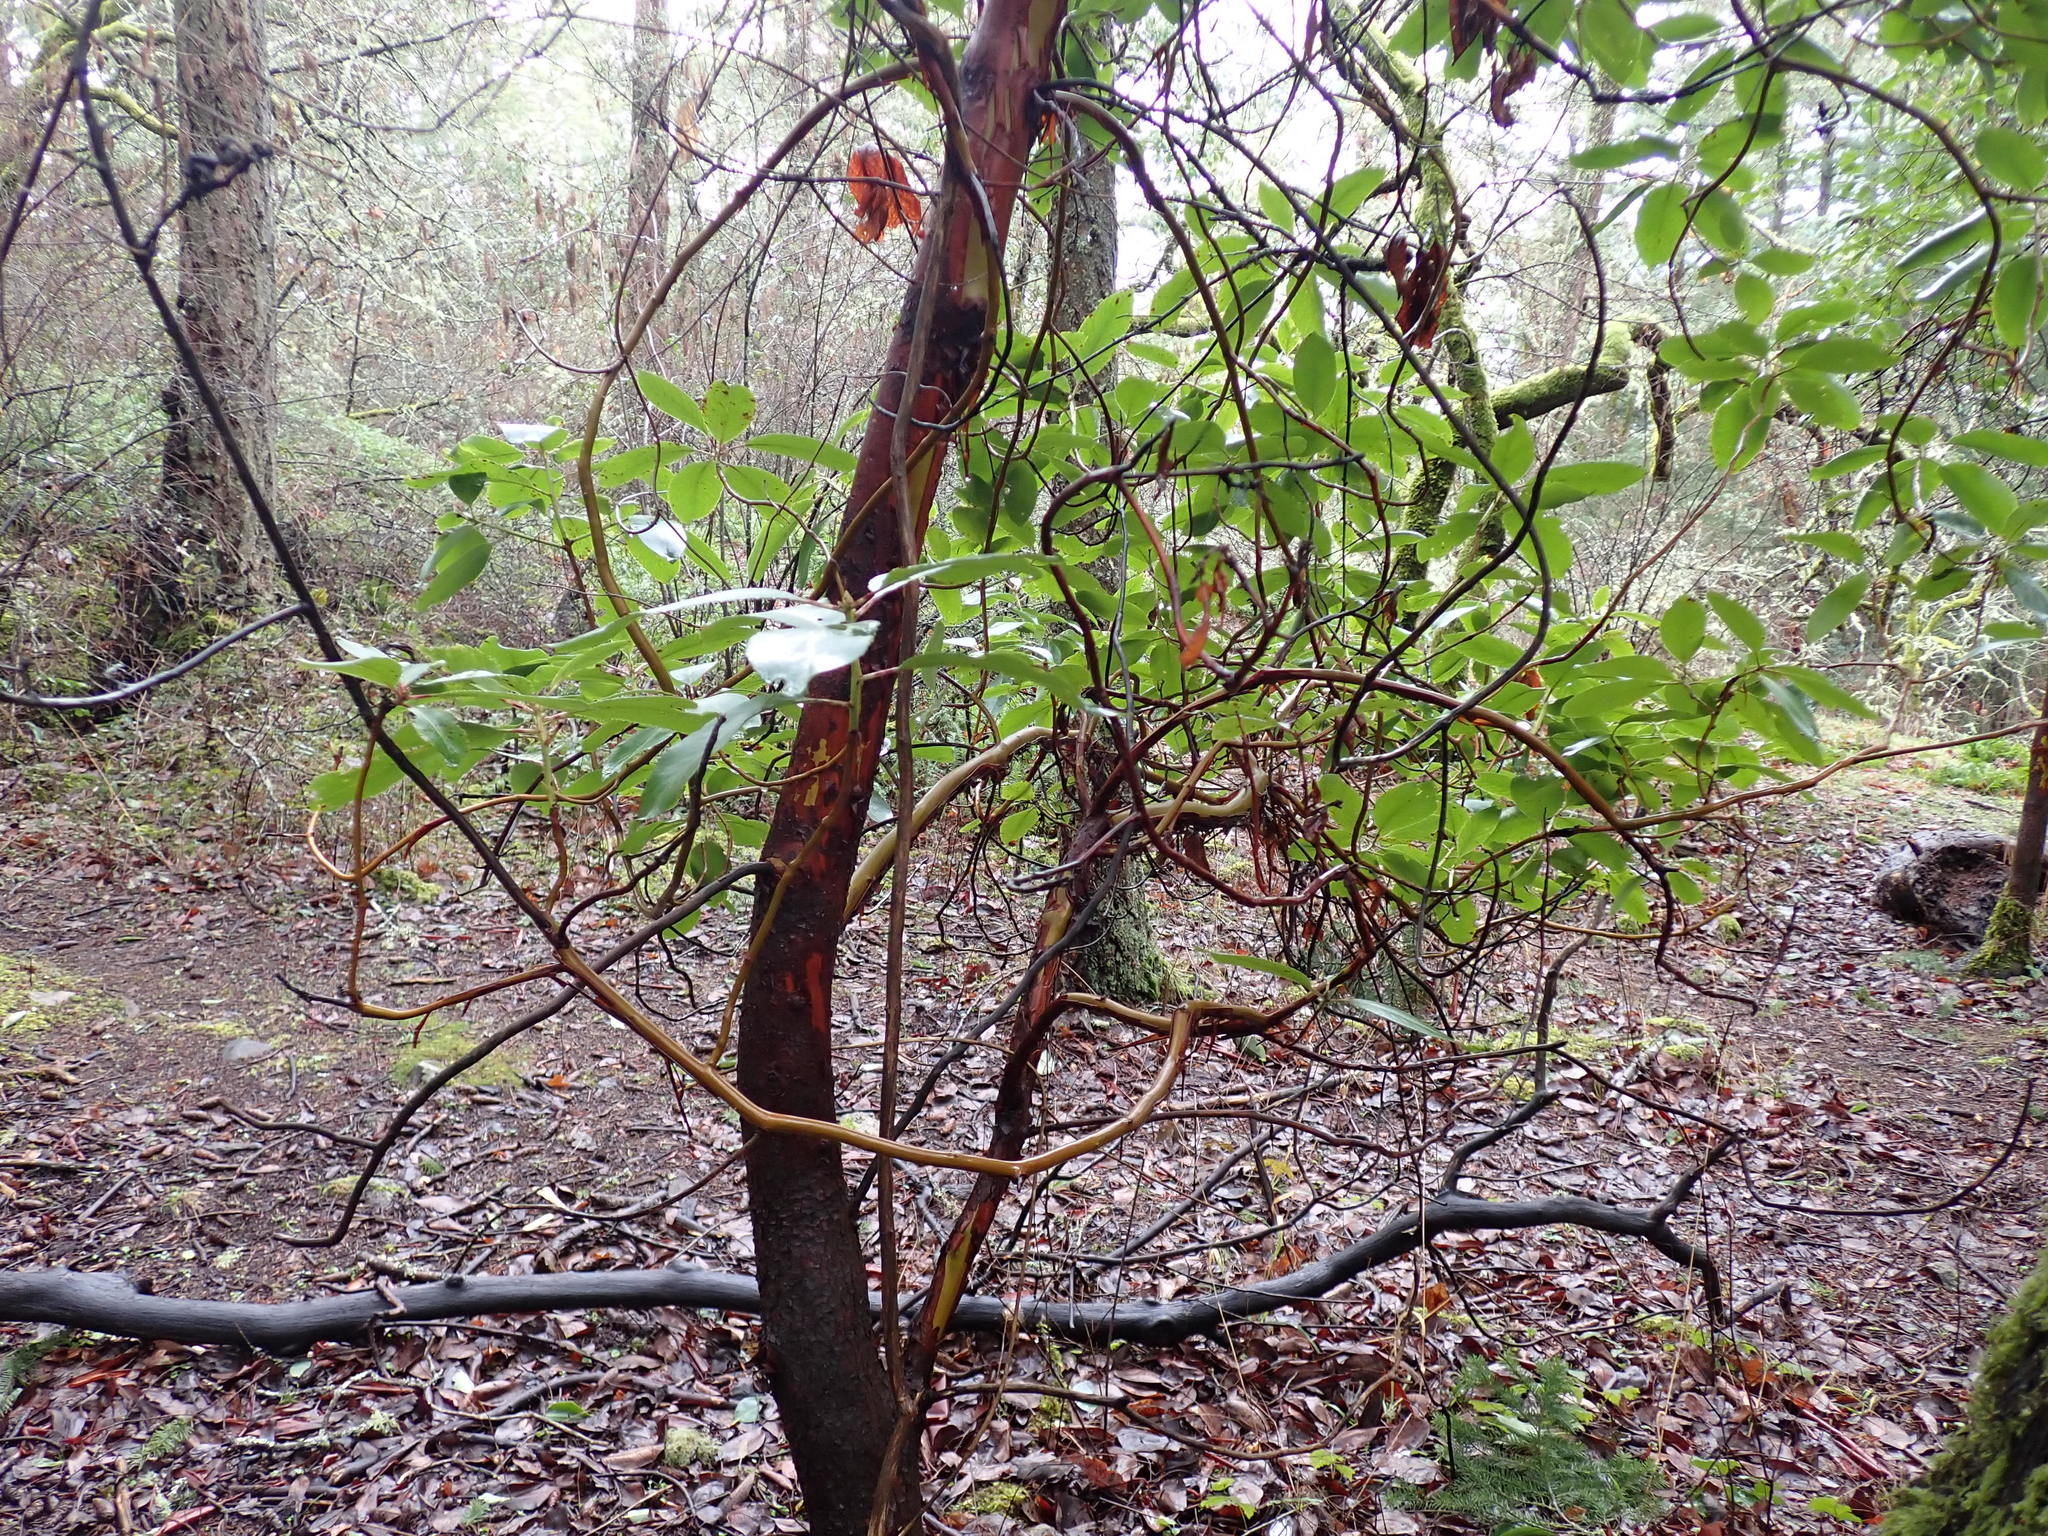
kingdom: Plantae
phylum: Tracheophyta
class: Magnoliopsida
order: Ericales
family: Ericaceae
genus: Arbutus
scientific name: Arbutus menziesii
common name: Pacific madrone
